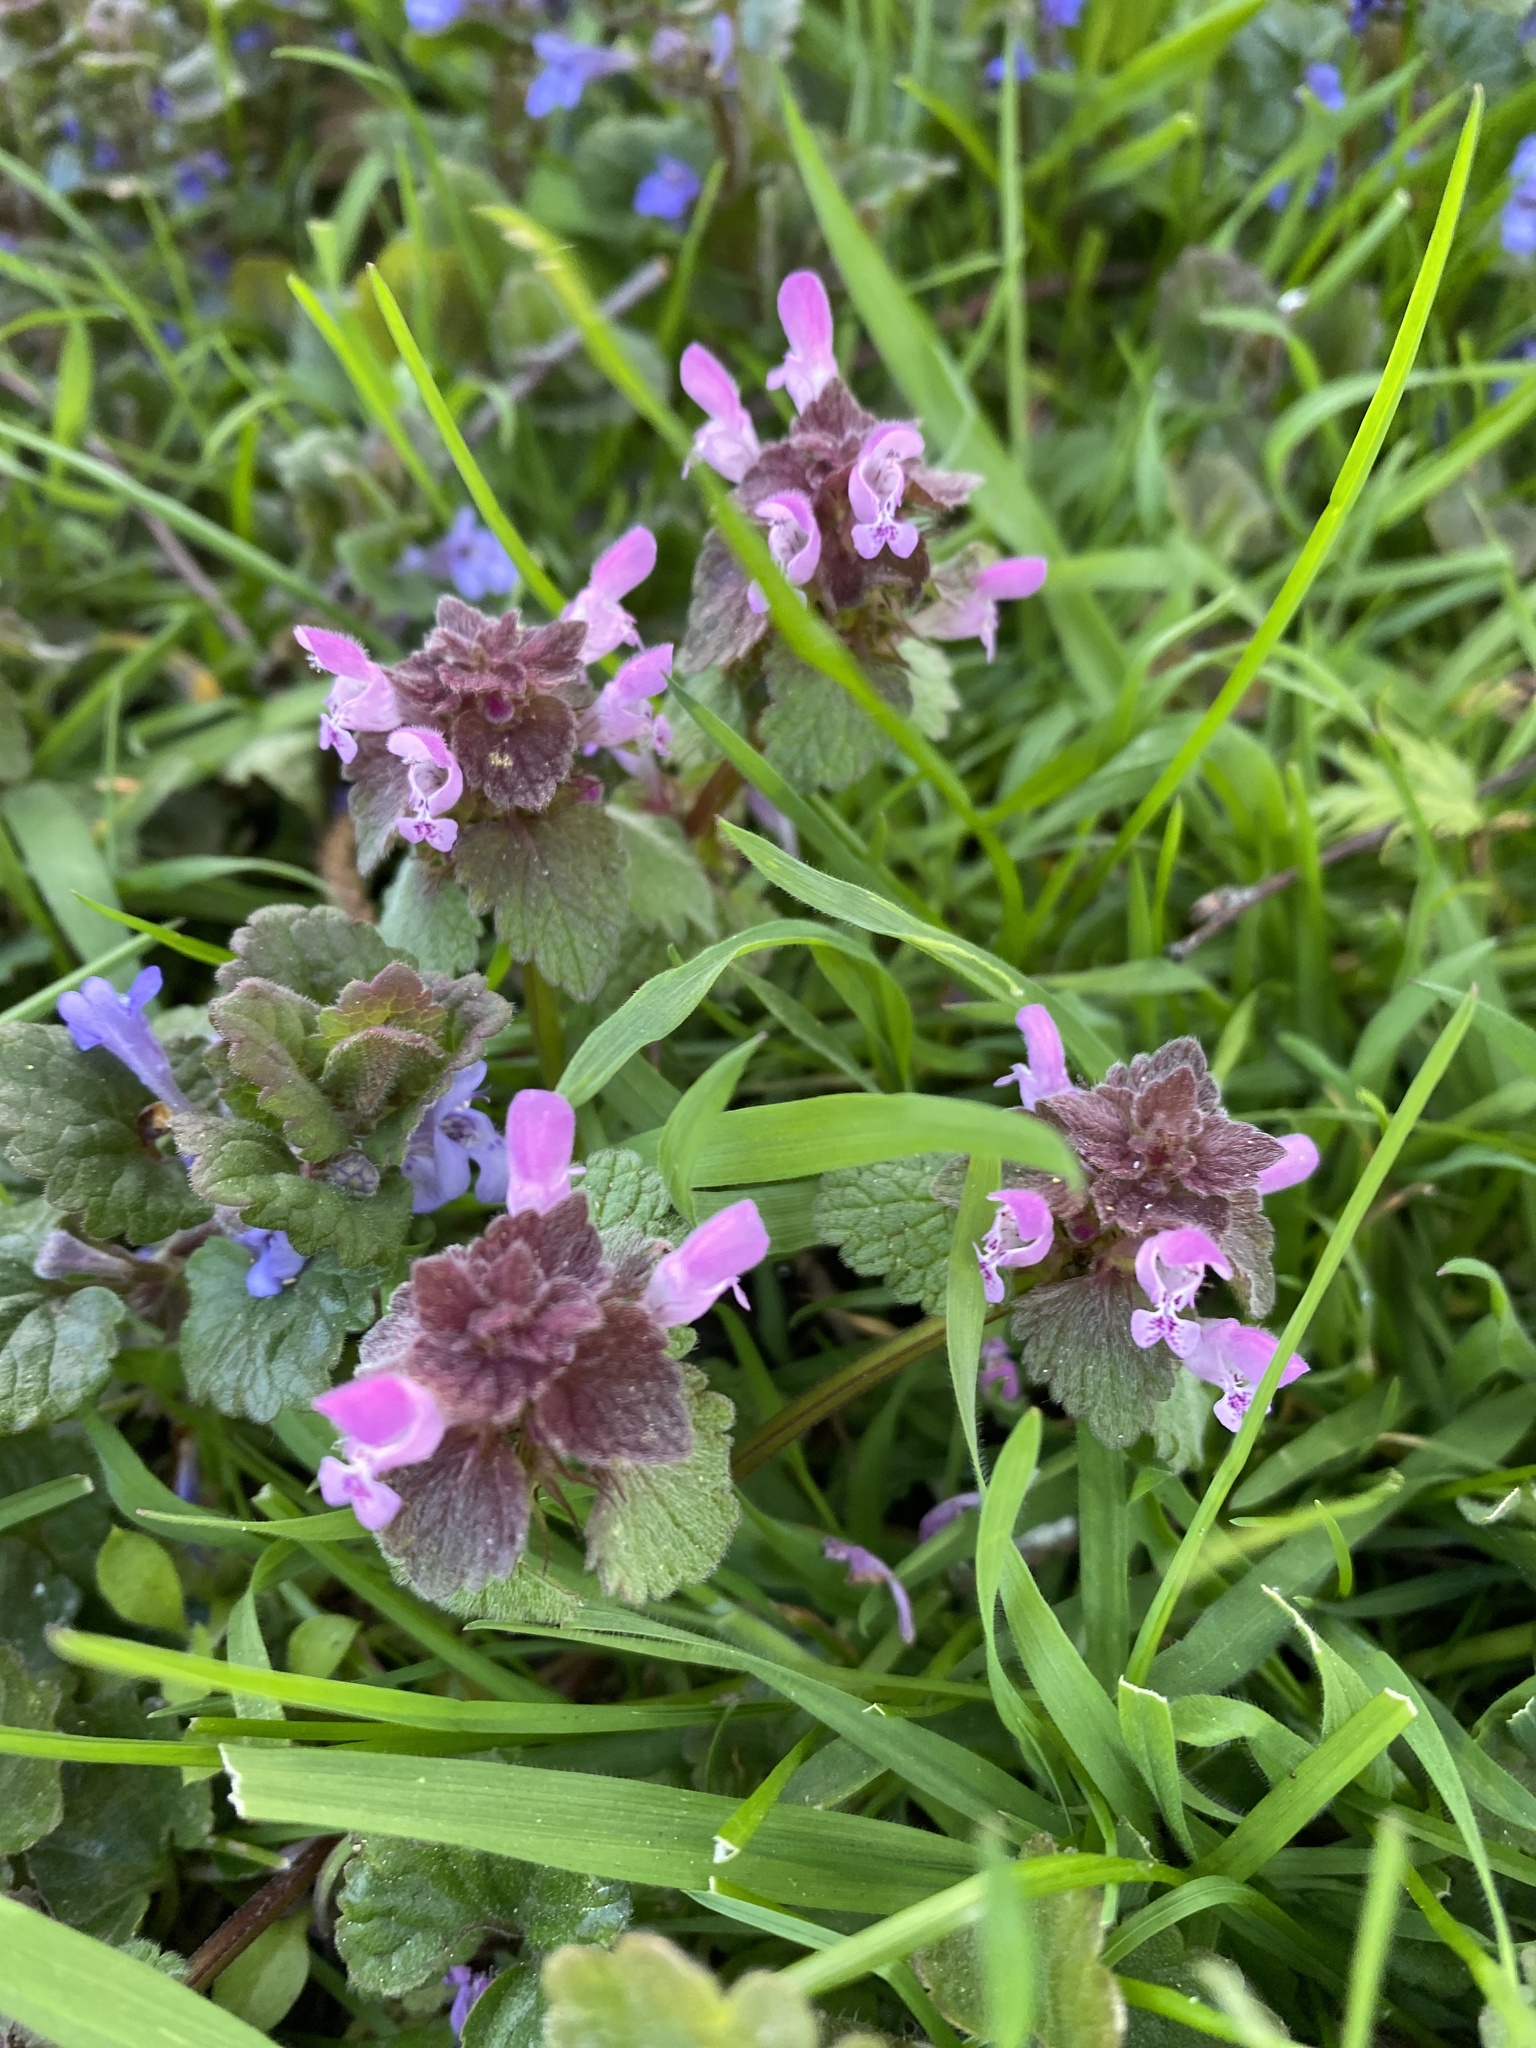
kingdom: Plantae
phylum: Tracheophyta
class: Magnoliopsida
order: Lamiales
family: Lamiaceae
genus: Lamium
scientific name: Lamium purpureum
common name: Red dead-nettle
